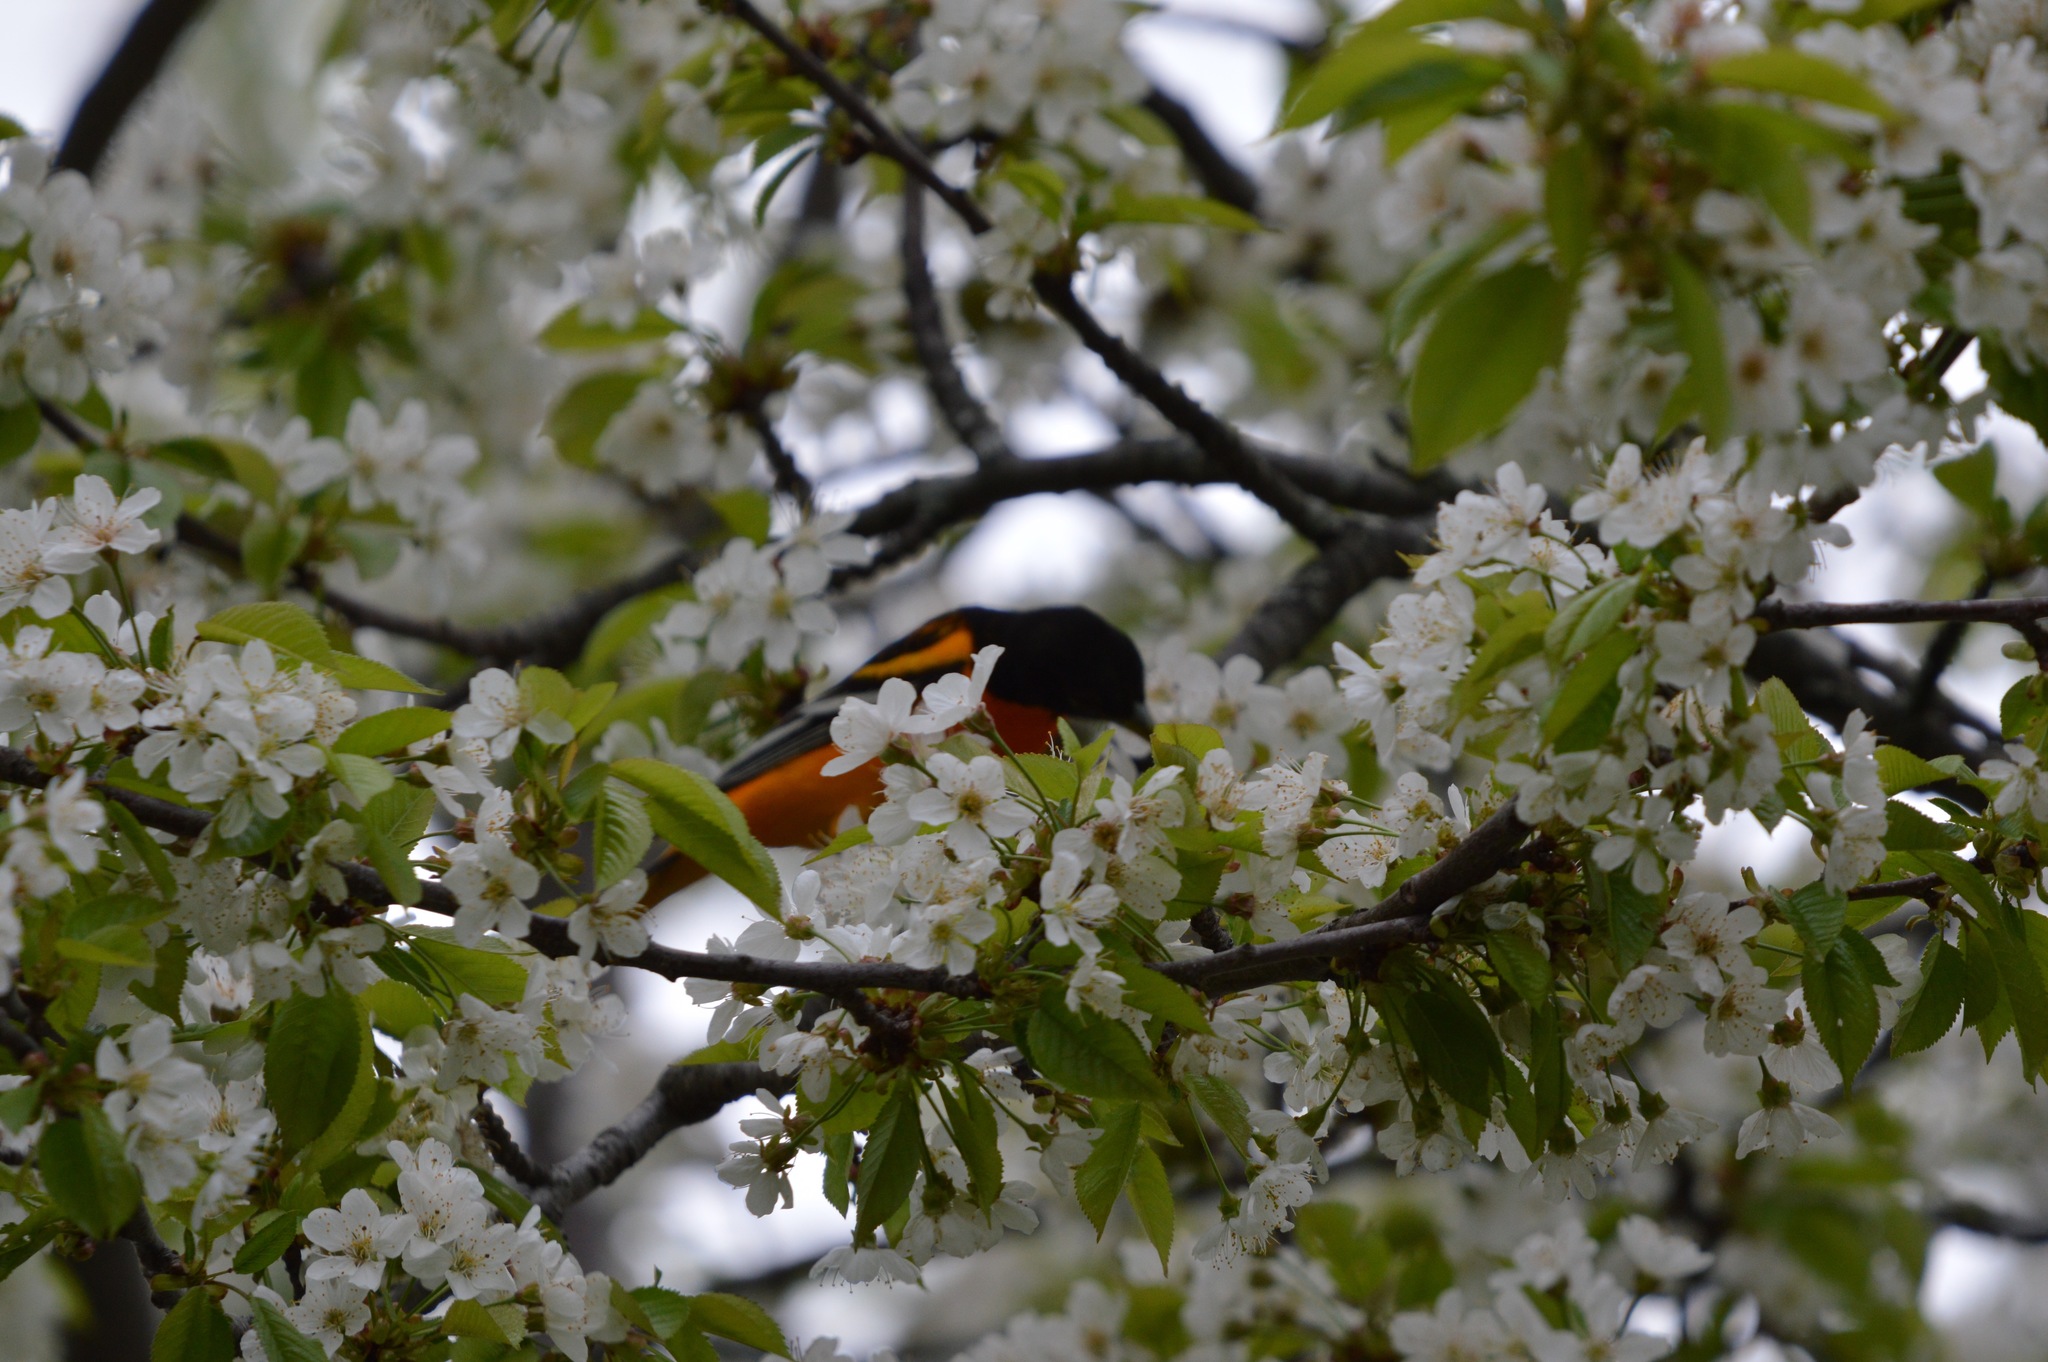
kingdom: Animalia
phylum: Chordata
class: Aves
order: Passeriformes
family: Icteridae
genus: Icterus
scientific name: Icterus galbula
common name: Baltimore oriole
